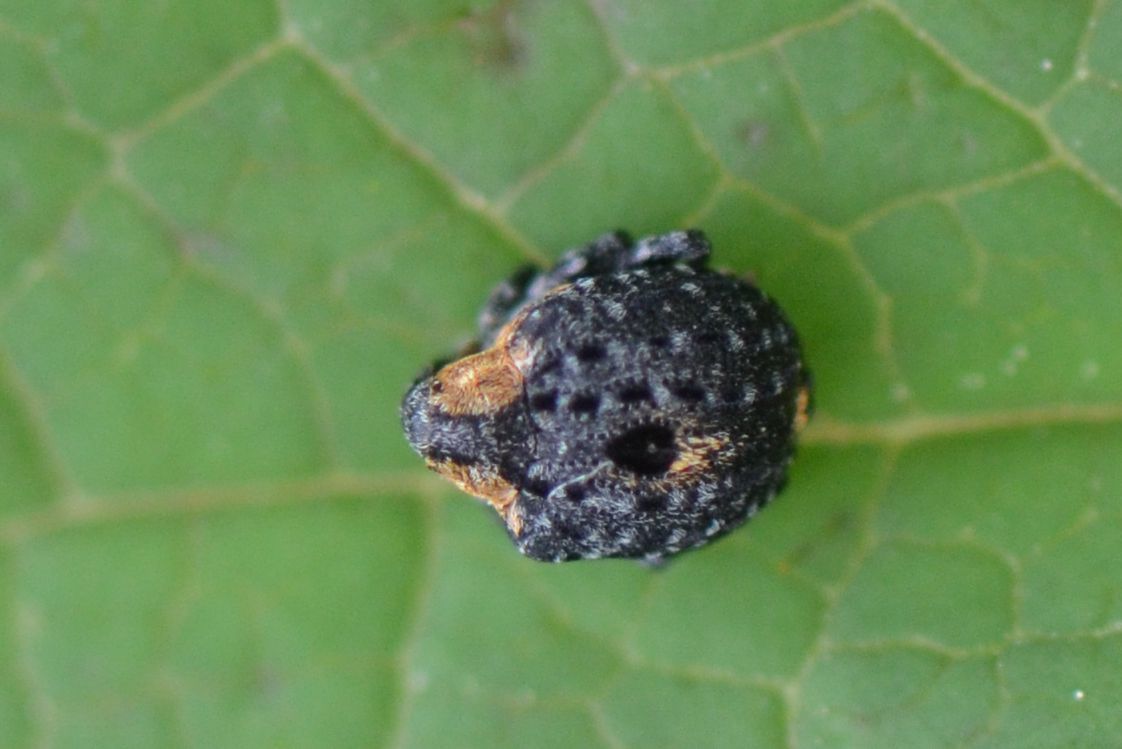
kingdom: Animalia
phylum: Arthropoda
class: Insecta
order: Coleoptera
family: Curculionidae
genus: Cionus
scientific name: Cionus tuberculosus
